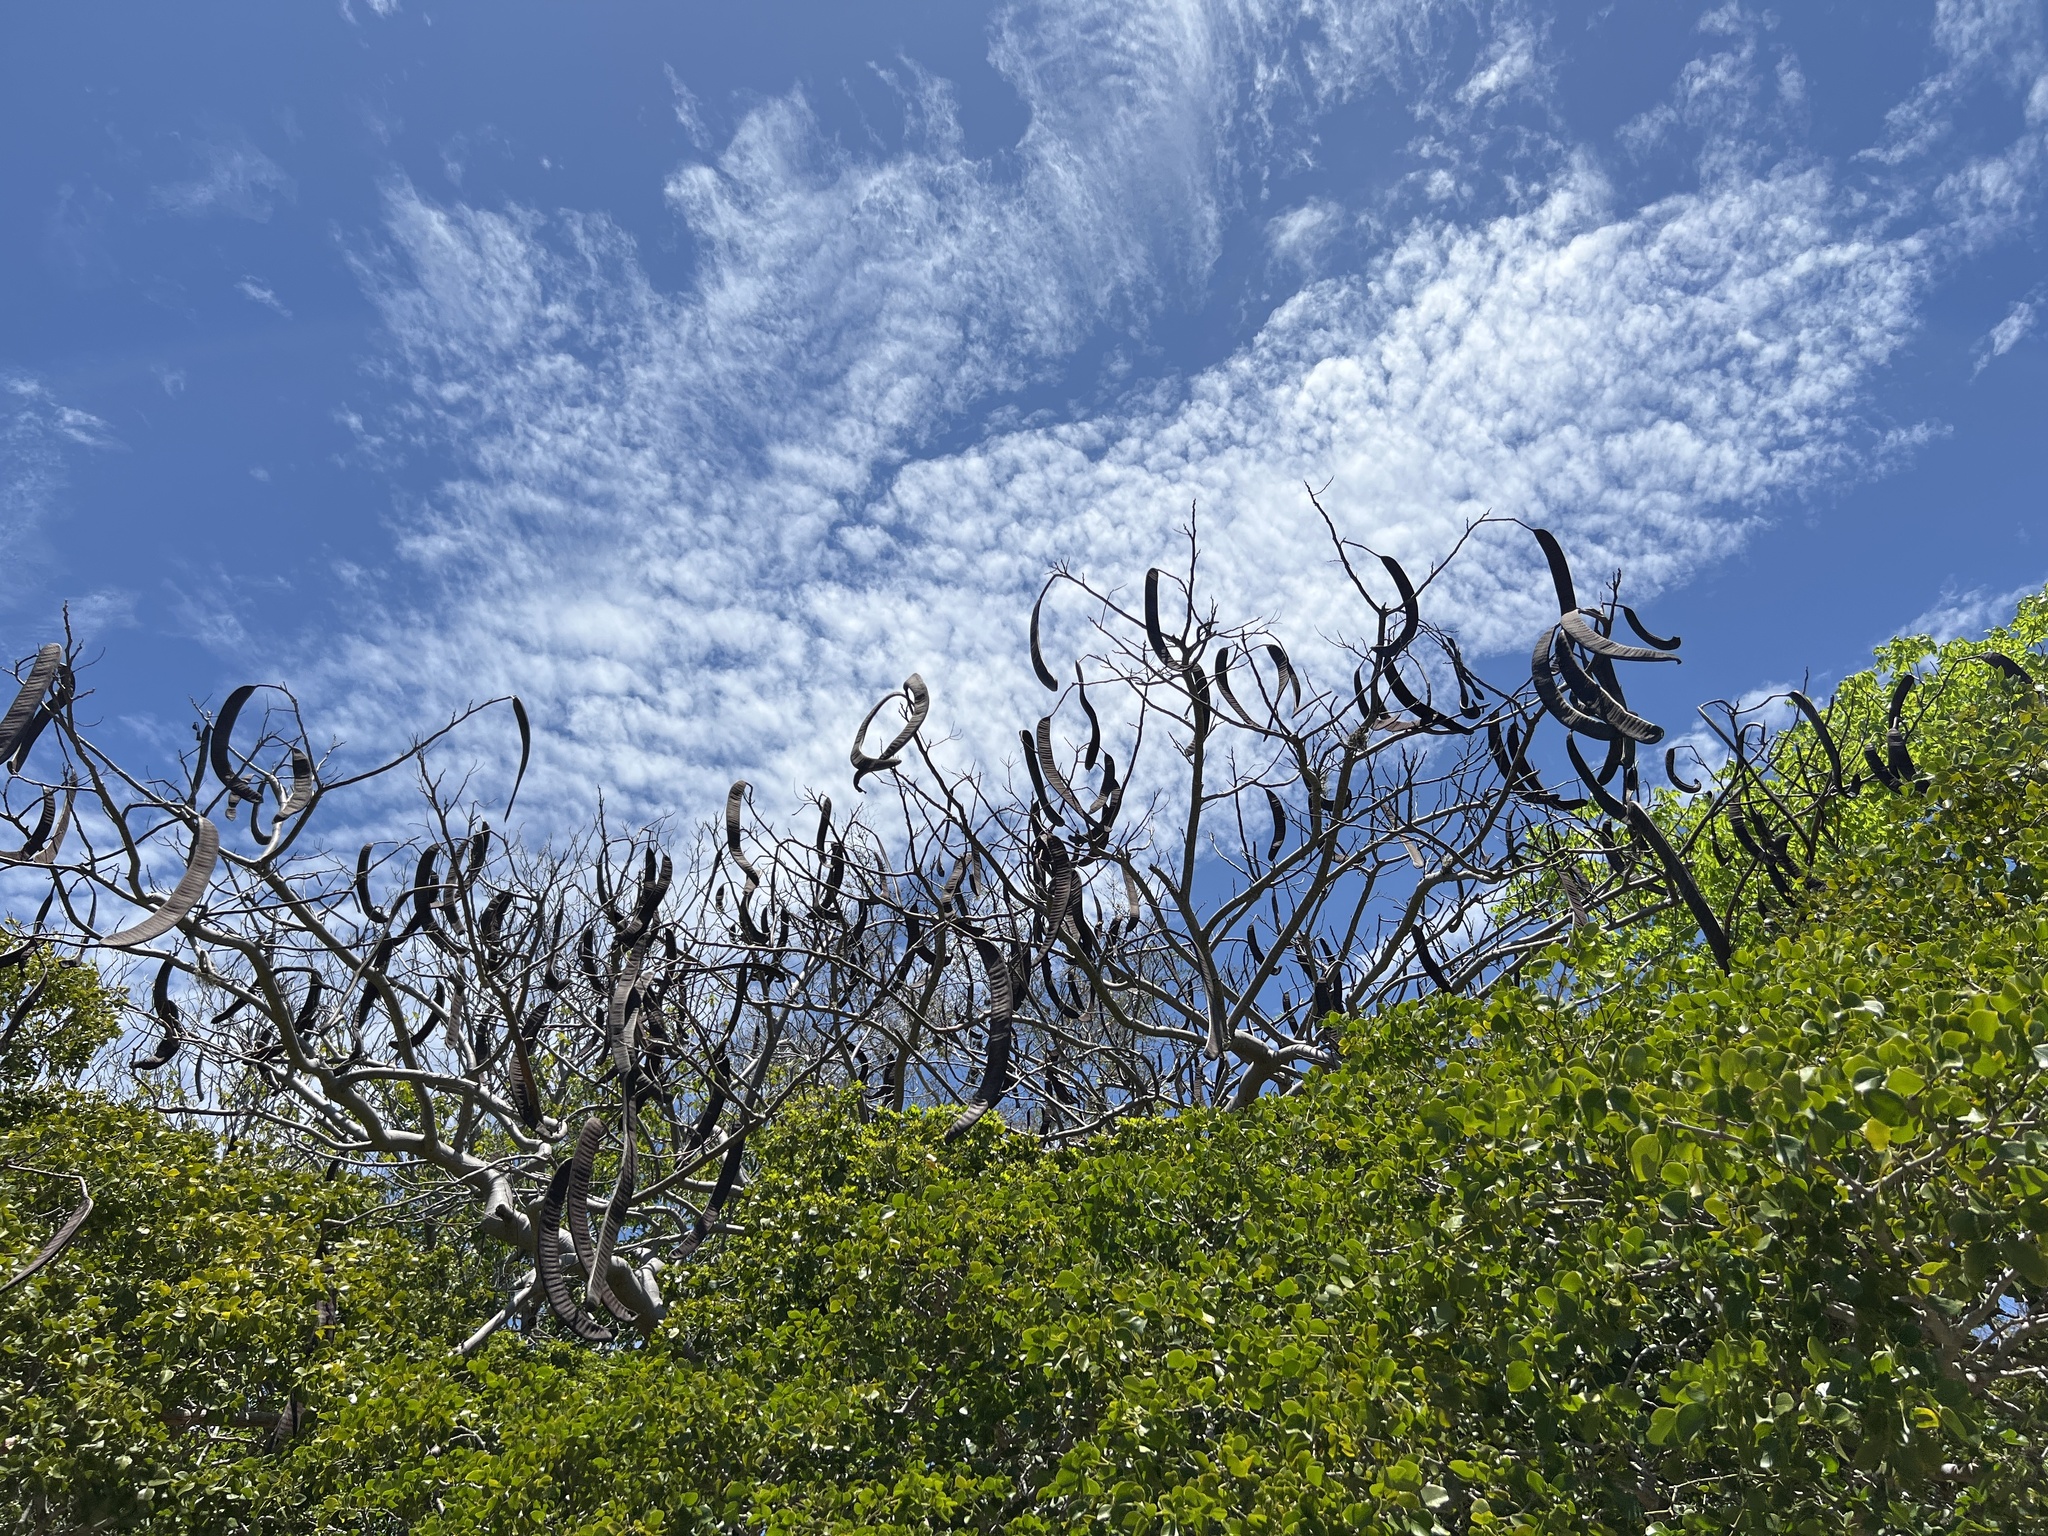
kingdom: Plantae
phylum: Tracheophyta
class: Magnoliopsida
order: Fabales
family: Fabaceae
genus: Delonix
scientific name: Delonix regia
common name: Royal poinciana
